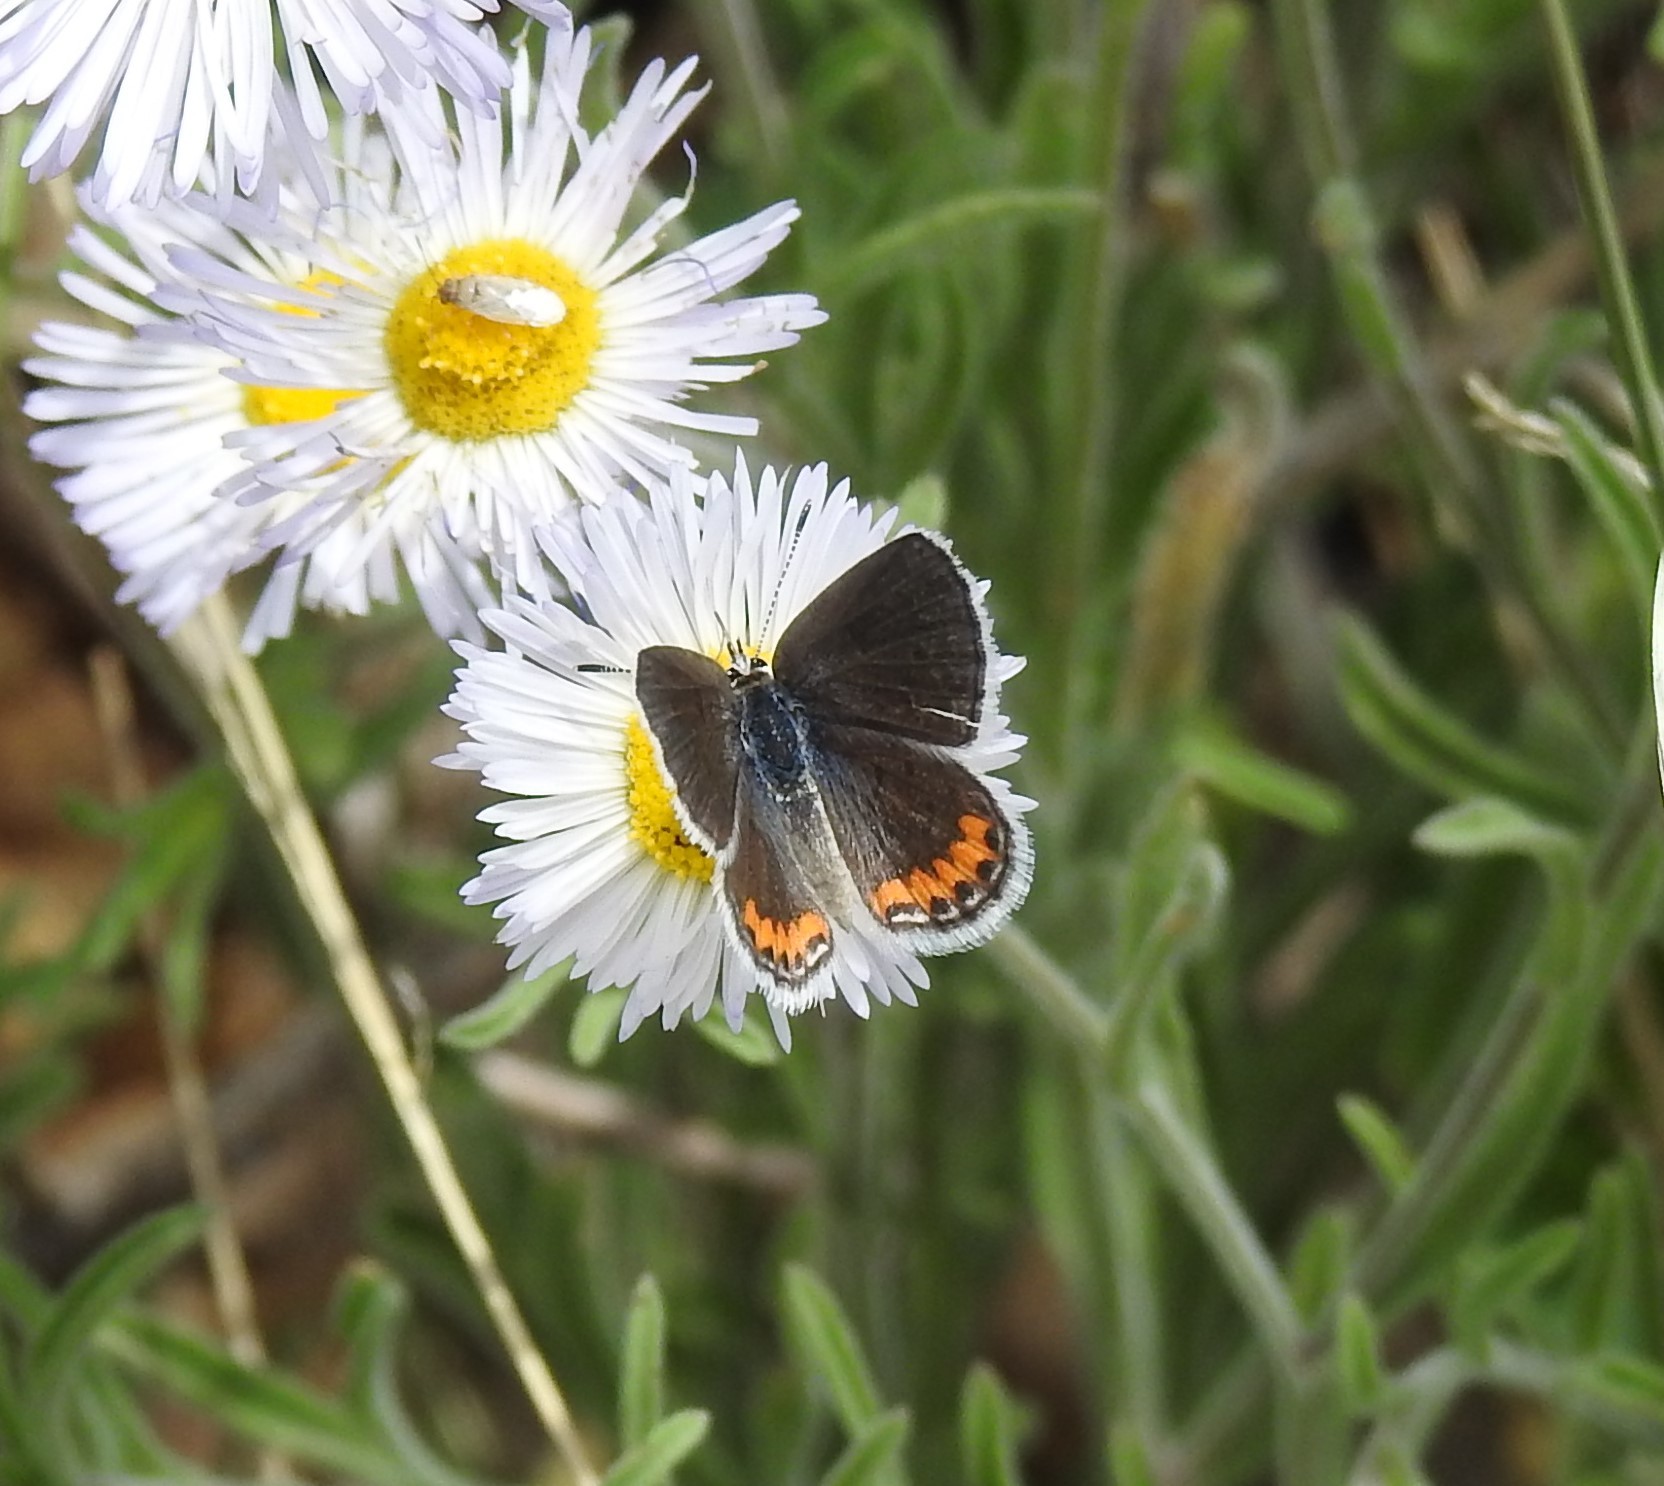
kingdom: Animalia
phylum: Arthropoda
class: Insecta
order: Lepidoptera
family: Lycaenidae
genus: Icaricia
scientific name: Icaricia lupini
